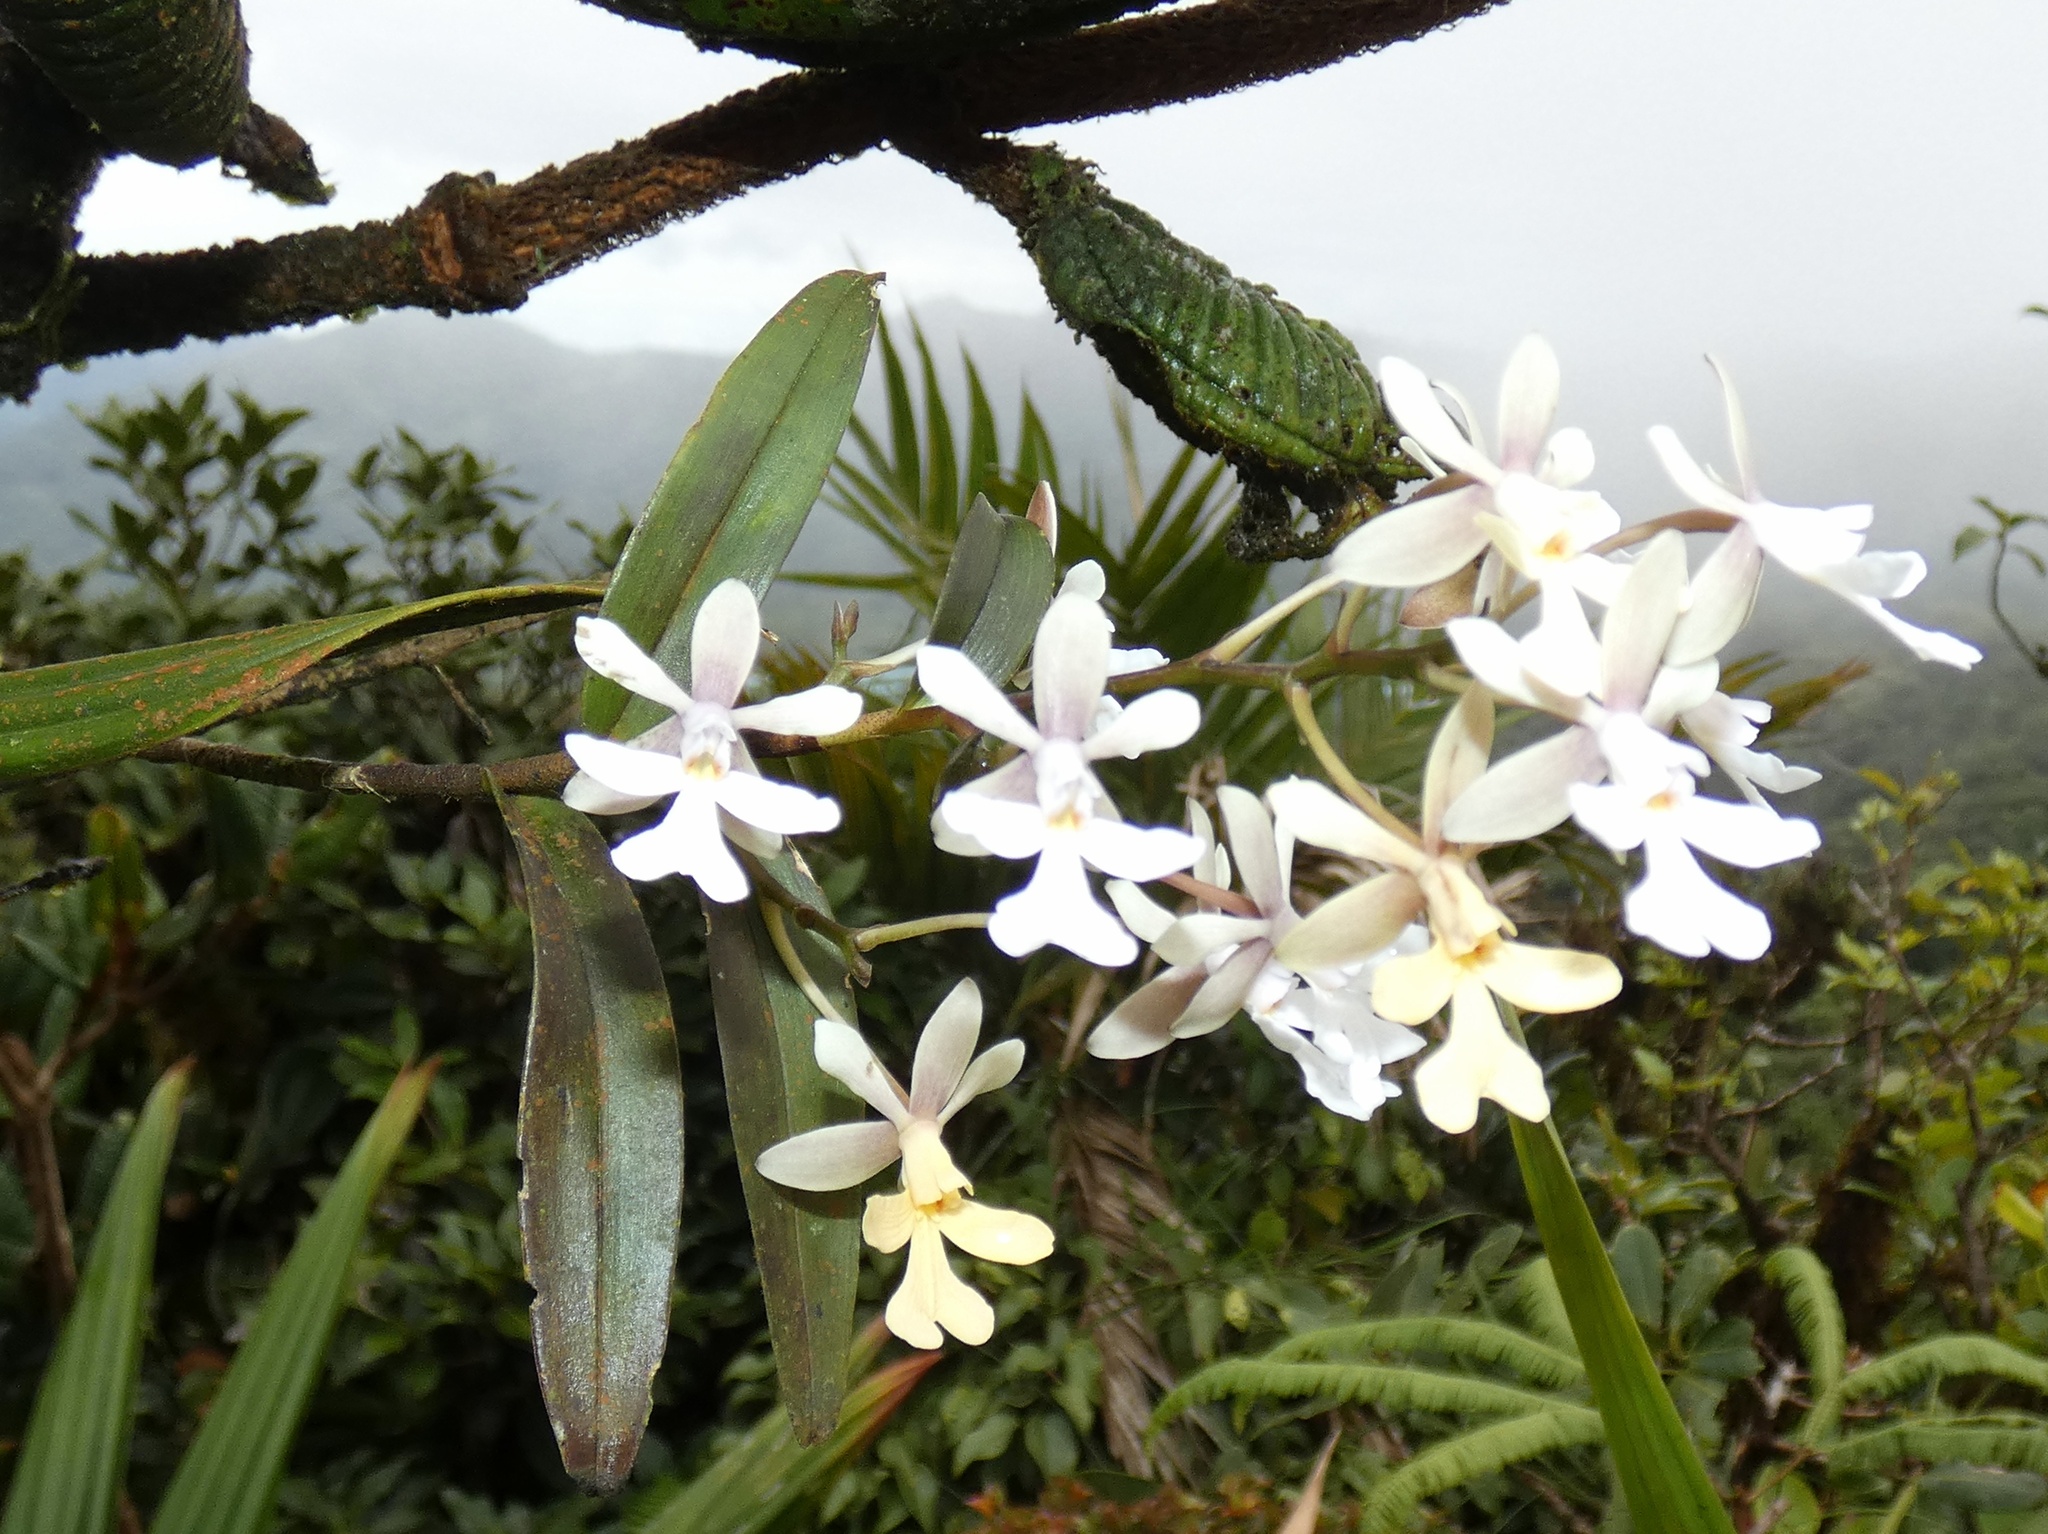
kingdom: Plantae
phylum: Tracheophyta
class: Liliopsida
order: Asparagales
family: Orchidaceae
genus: Epidendrum
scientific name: Epidendrum pajitense
